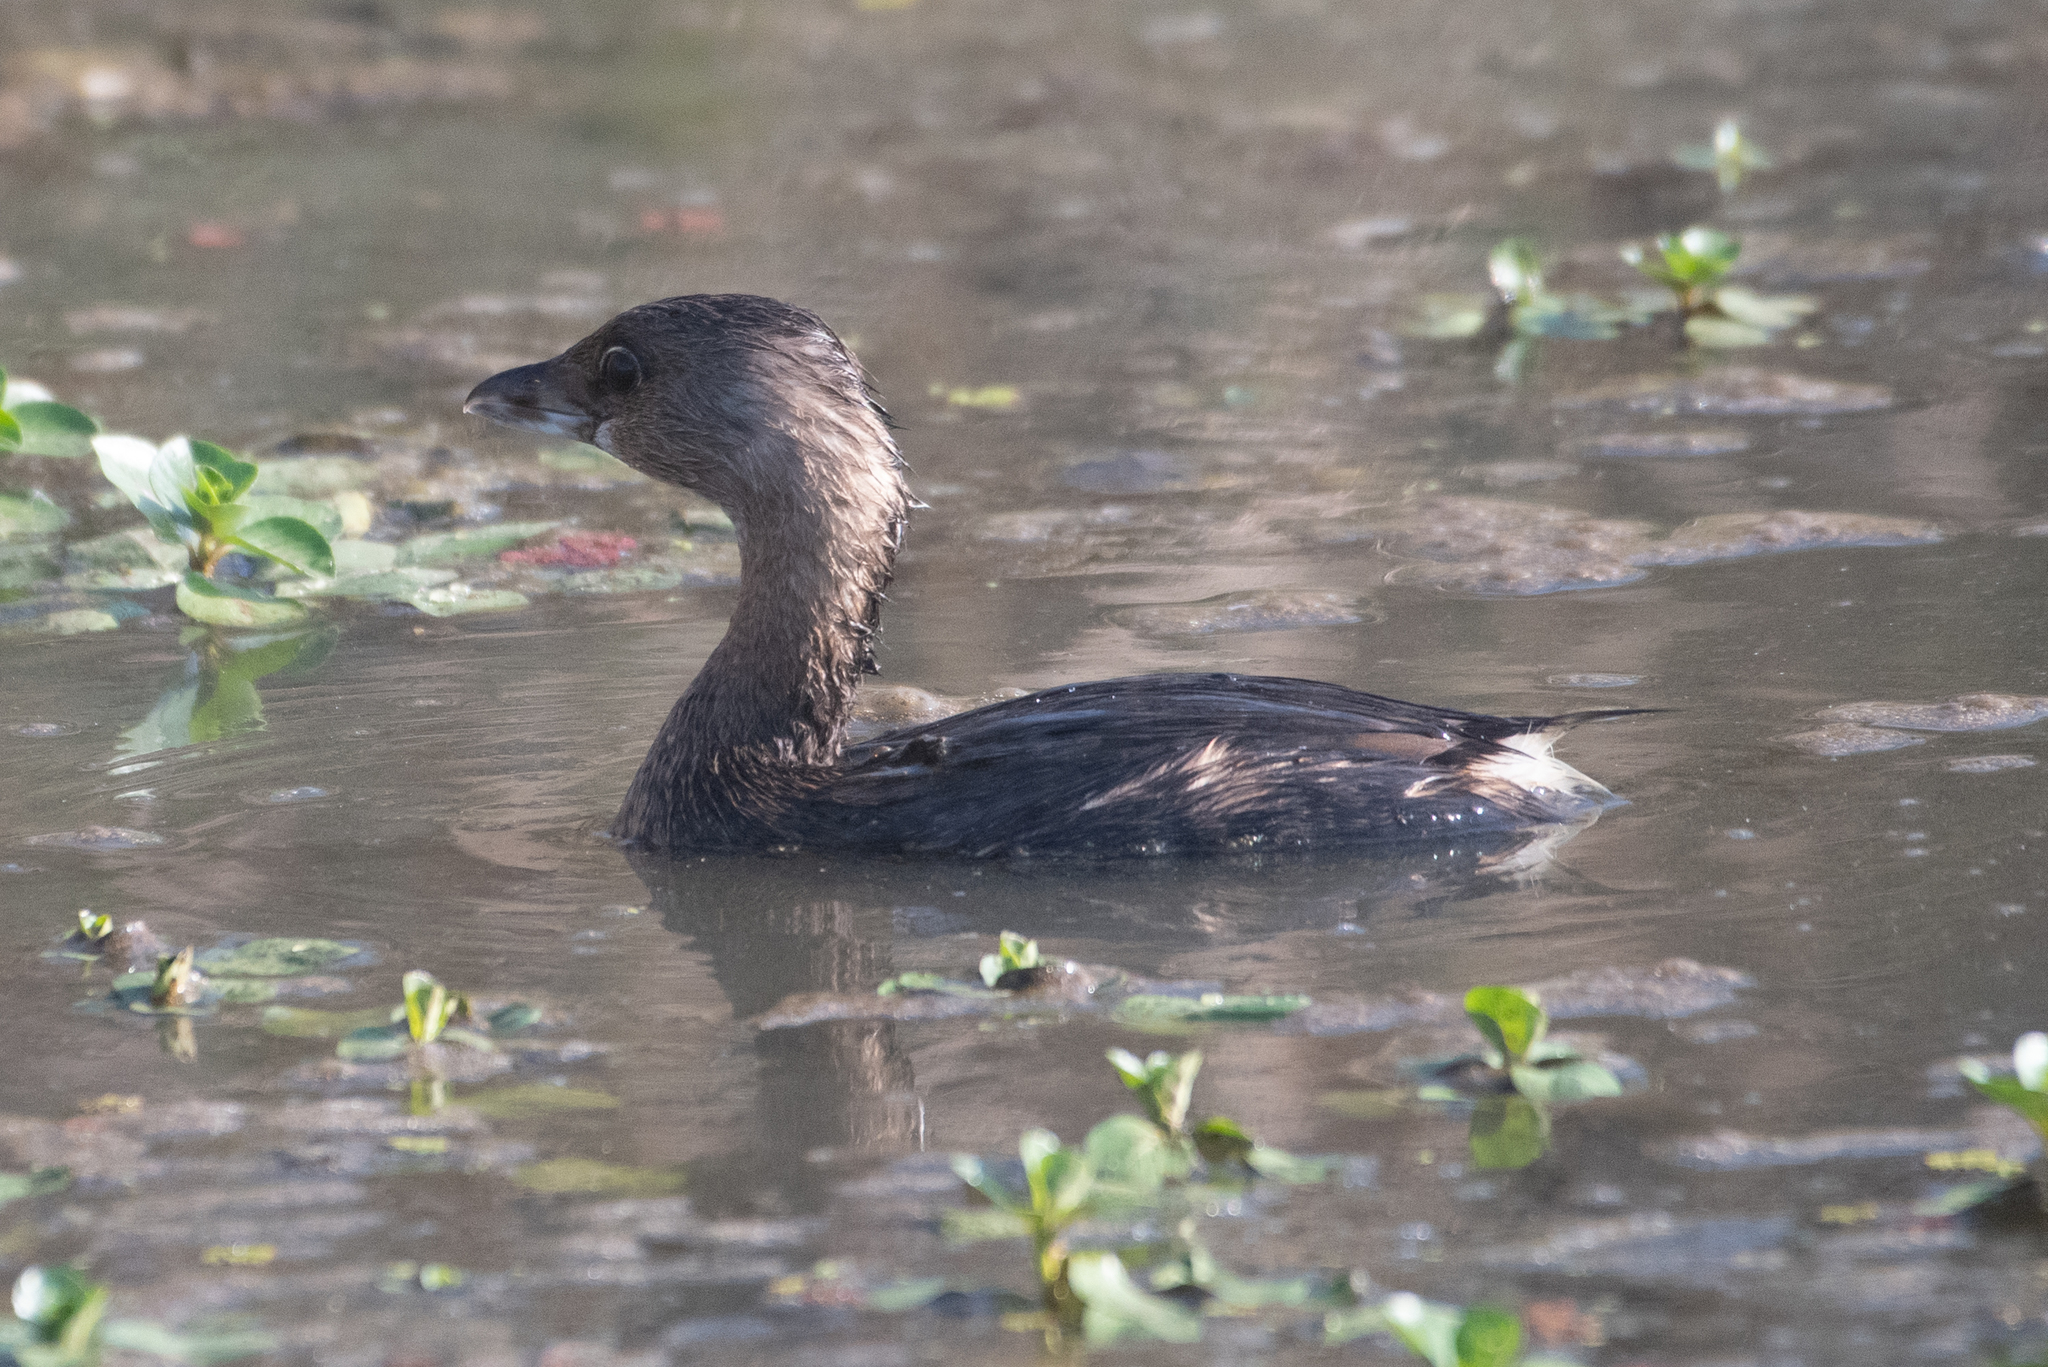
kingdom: Animalia
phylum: Chordata
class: Aves
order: Podicipediformes
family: Podicipedidae
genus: Podilymbus
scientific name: Podilymbus podiceps
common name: Pied-billed grebe
